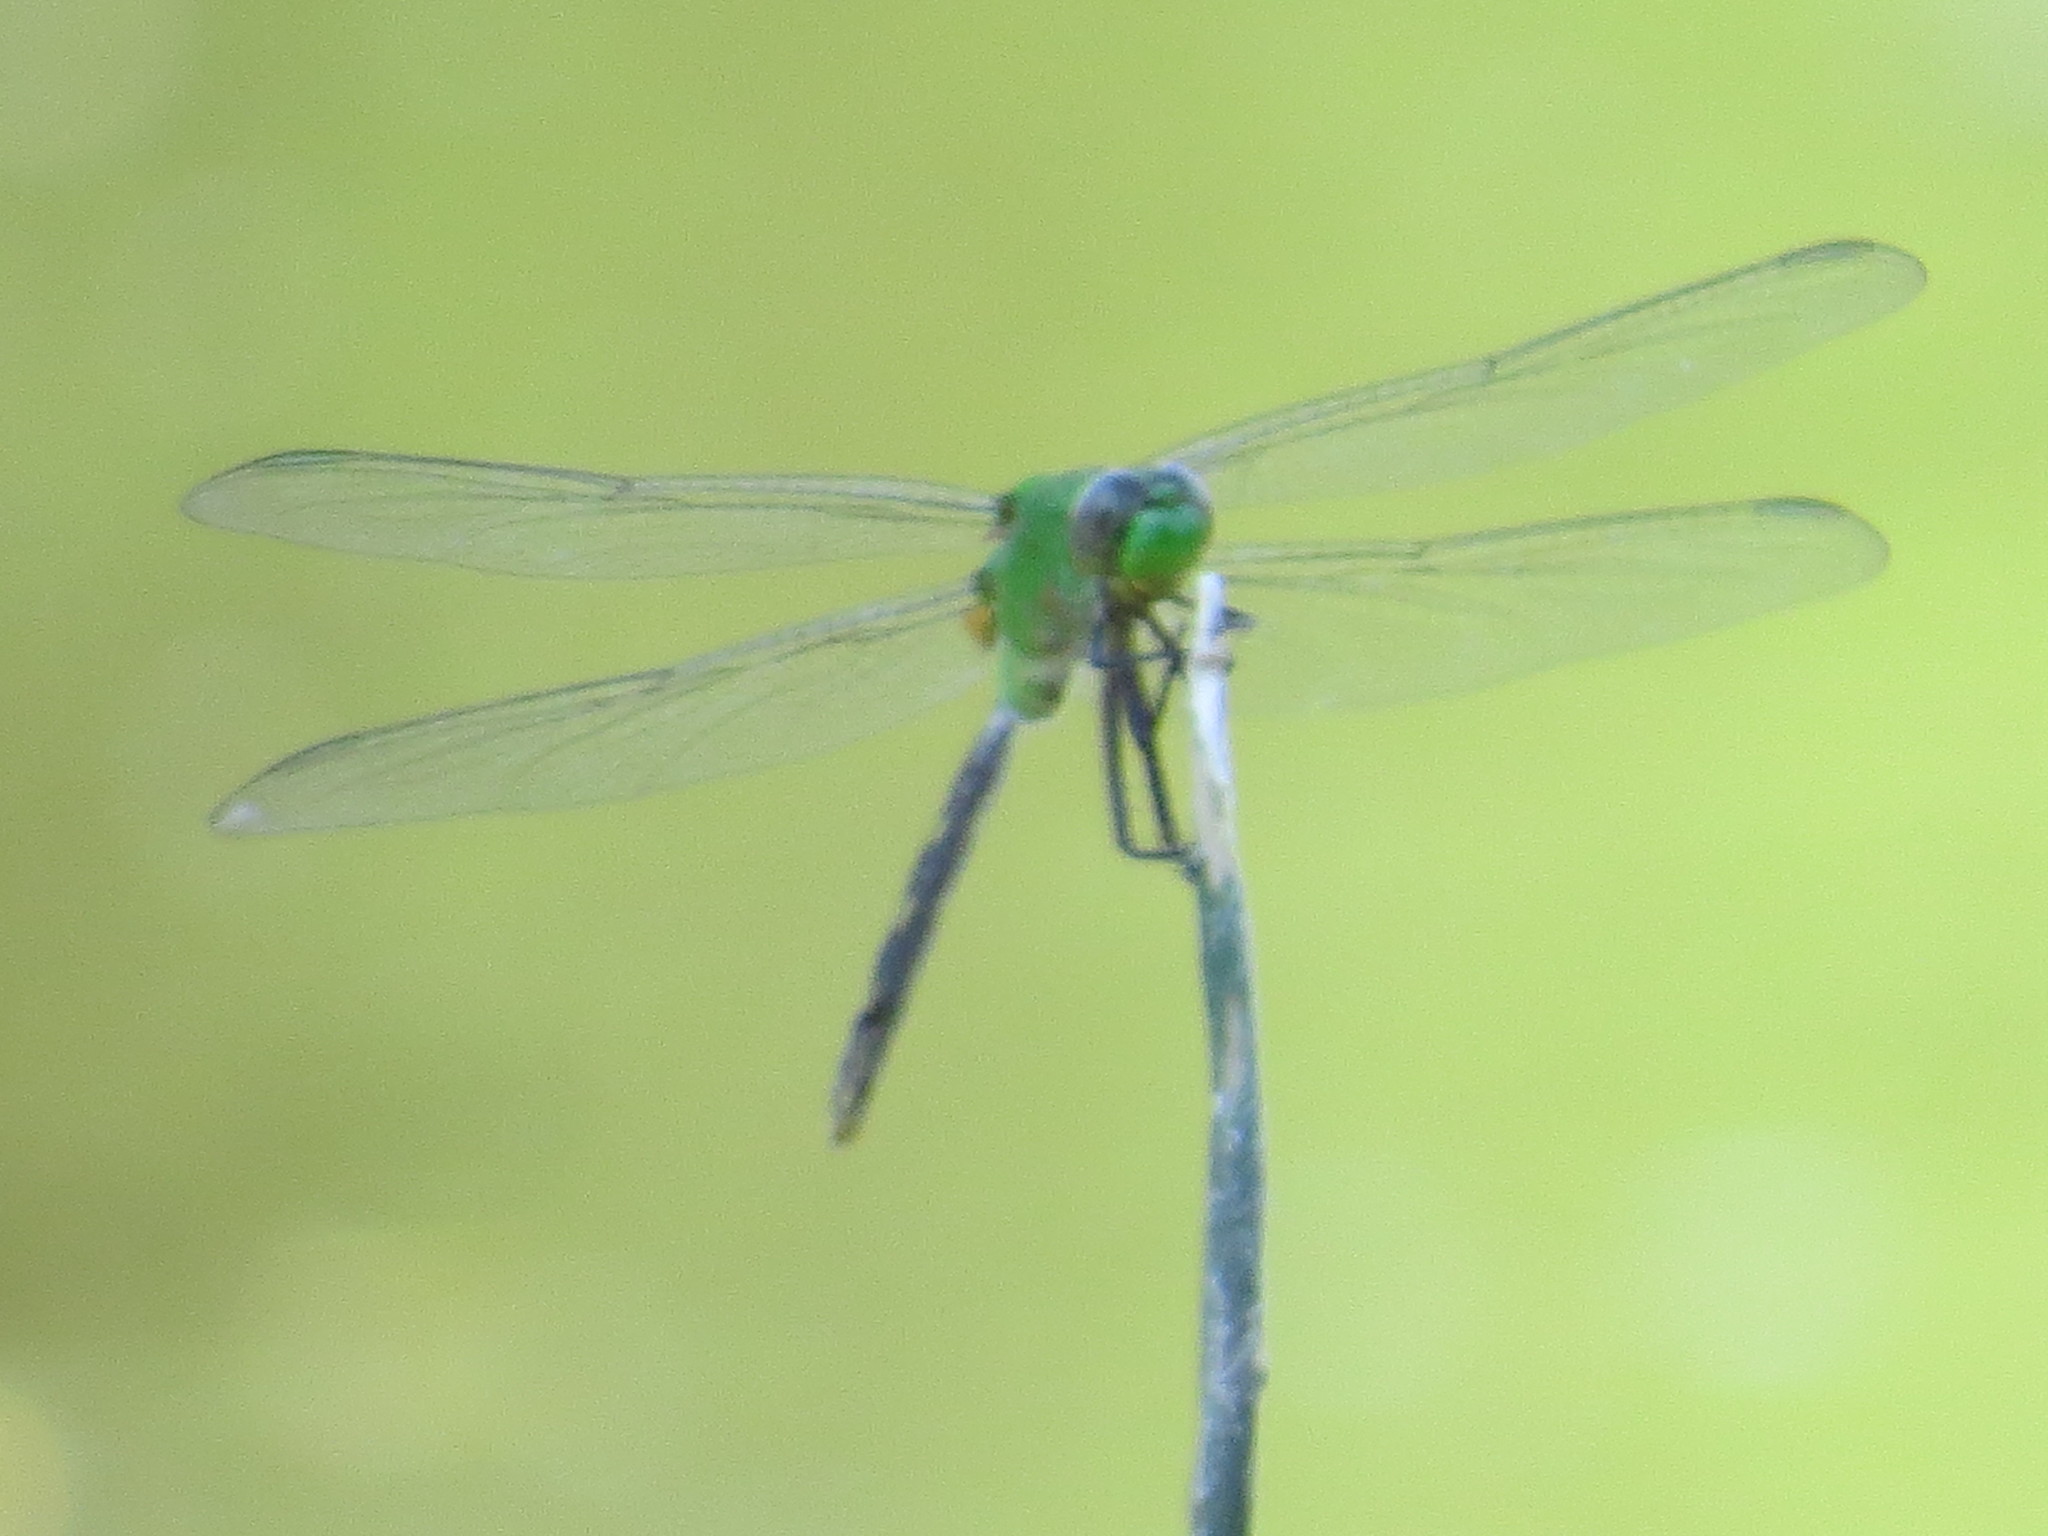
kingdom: Animalia
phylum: Arthropoda
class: Insecta
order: Odonata
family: Libellulidae
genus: Erythemis
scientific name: Erythemis vesiculosa
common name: Great pondhawk
